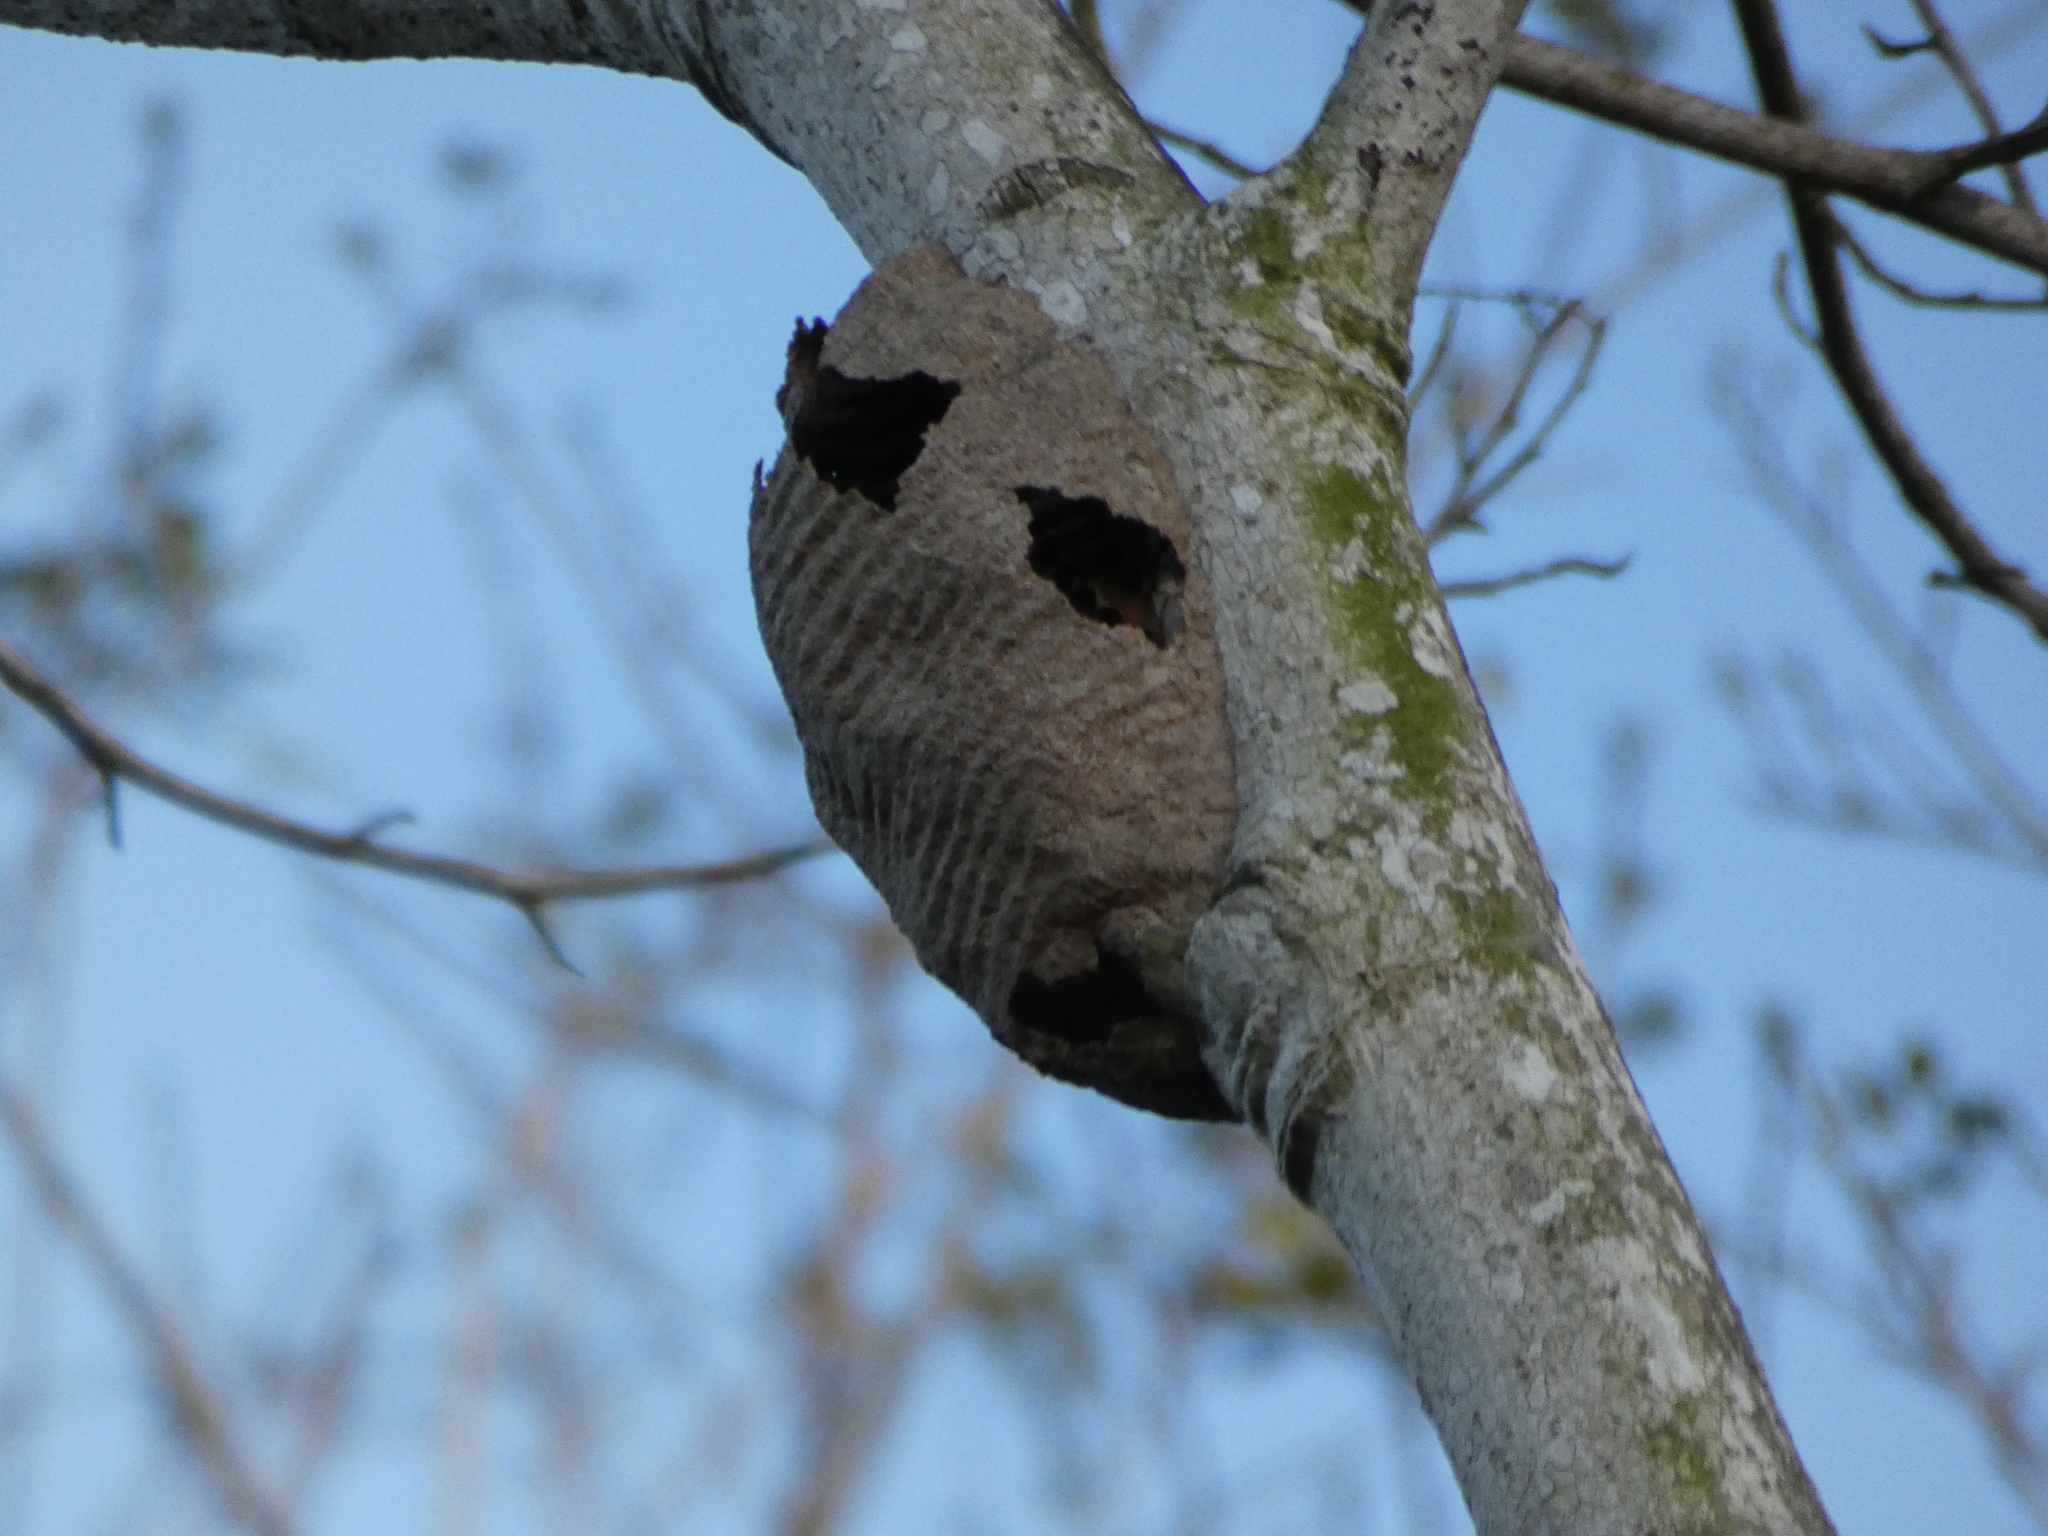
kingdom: Animalia
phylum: Arthropoda
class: Insecta
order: Hymenoptera
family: Vespidae
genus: Synoeca
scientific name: Synoeca
